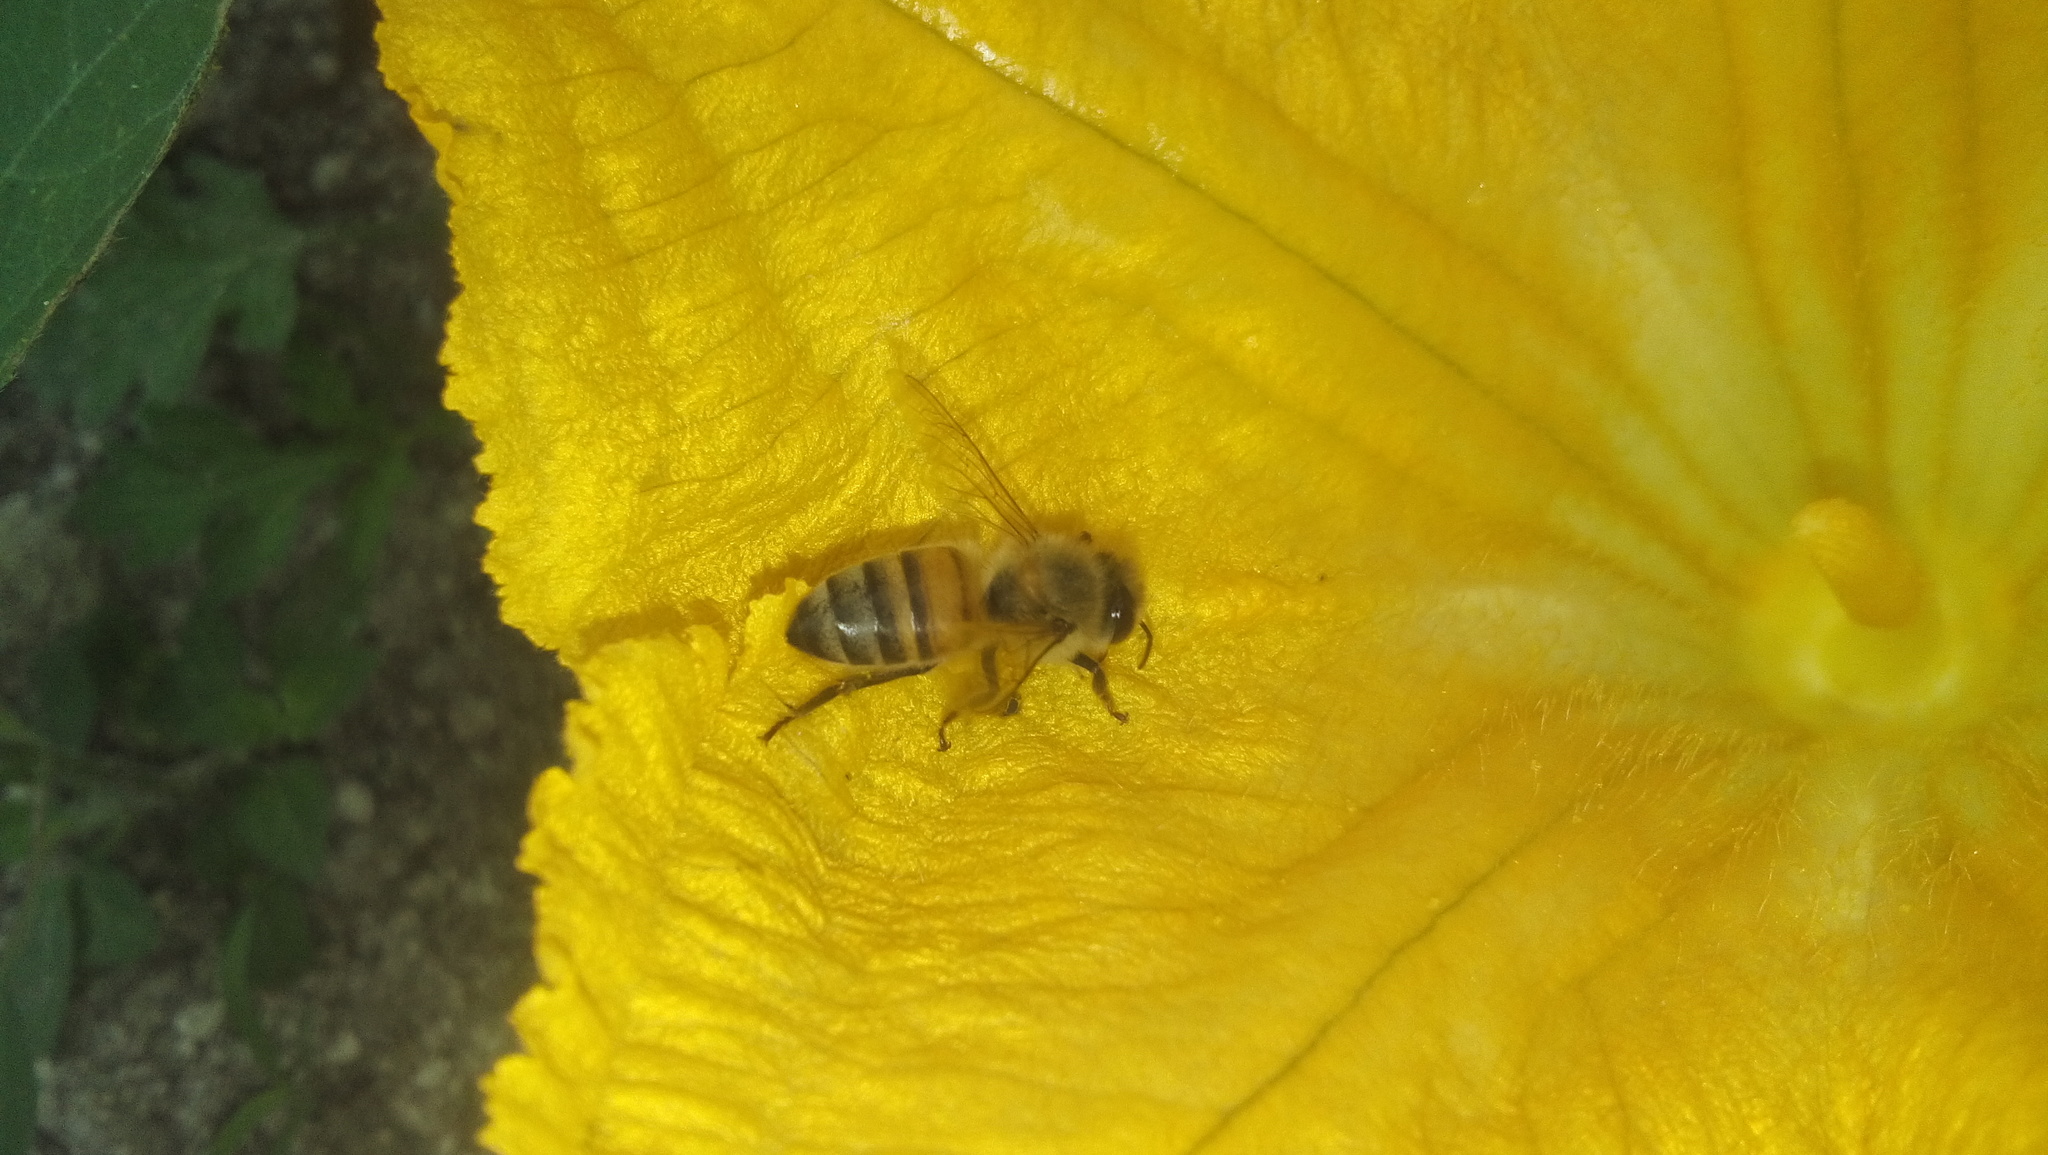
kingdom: Animalia
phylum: Arthropoda
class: Insecta
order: Hymenoptera
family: Apidae
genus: Apis
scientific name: Apis mellifera
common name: Honey bee
